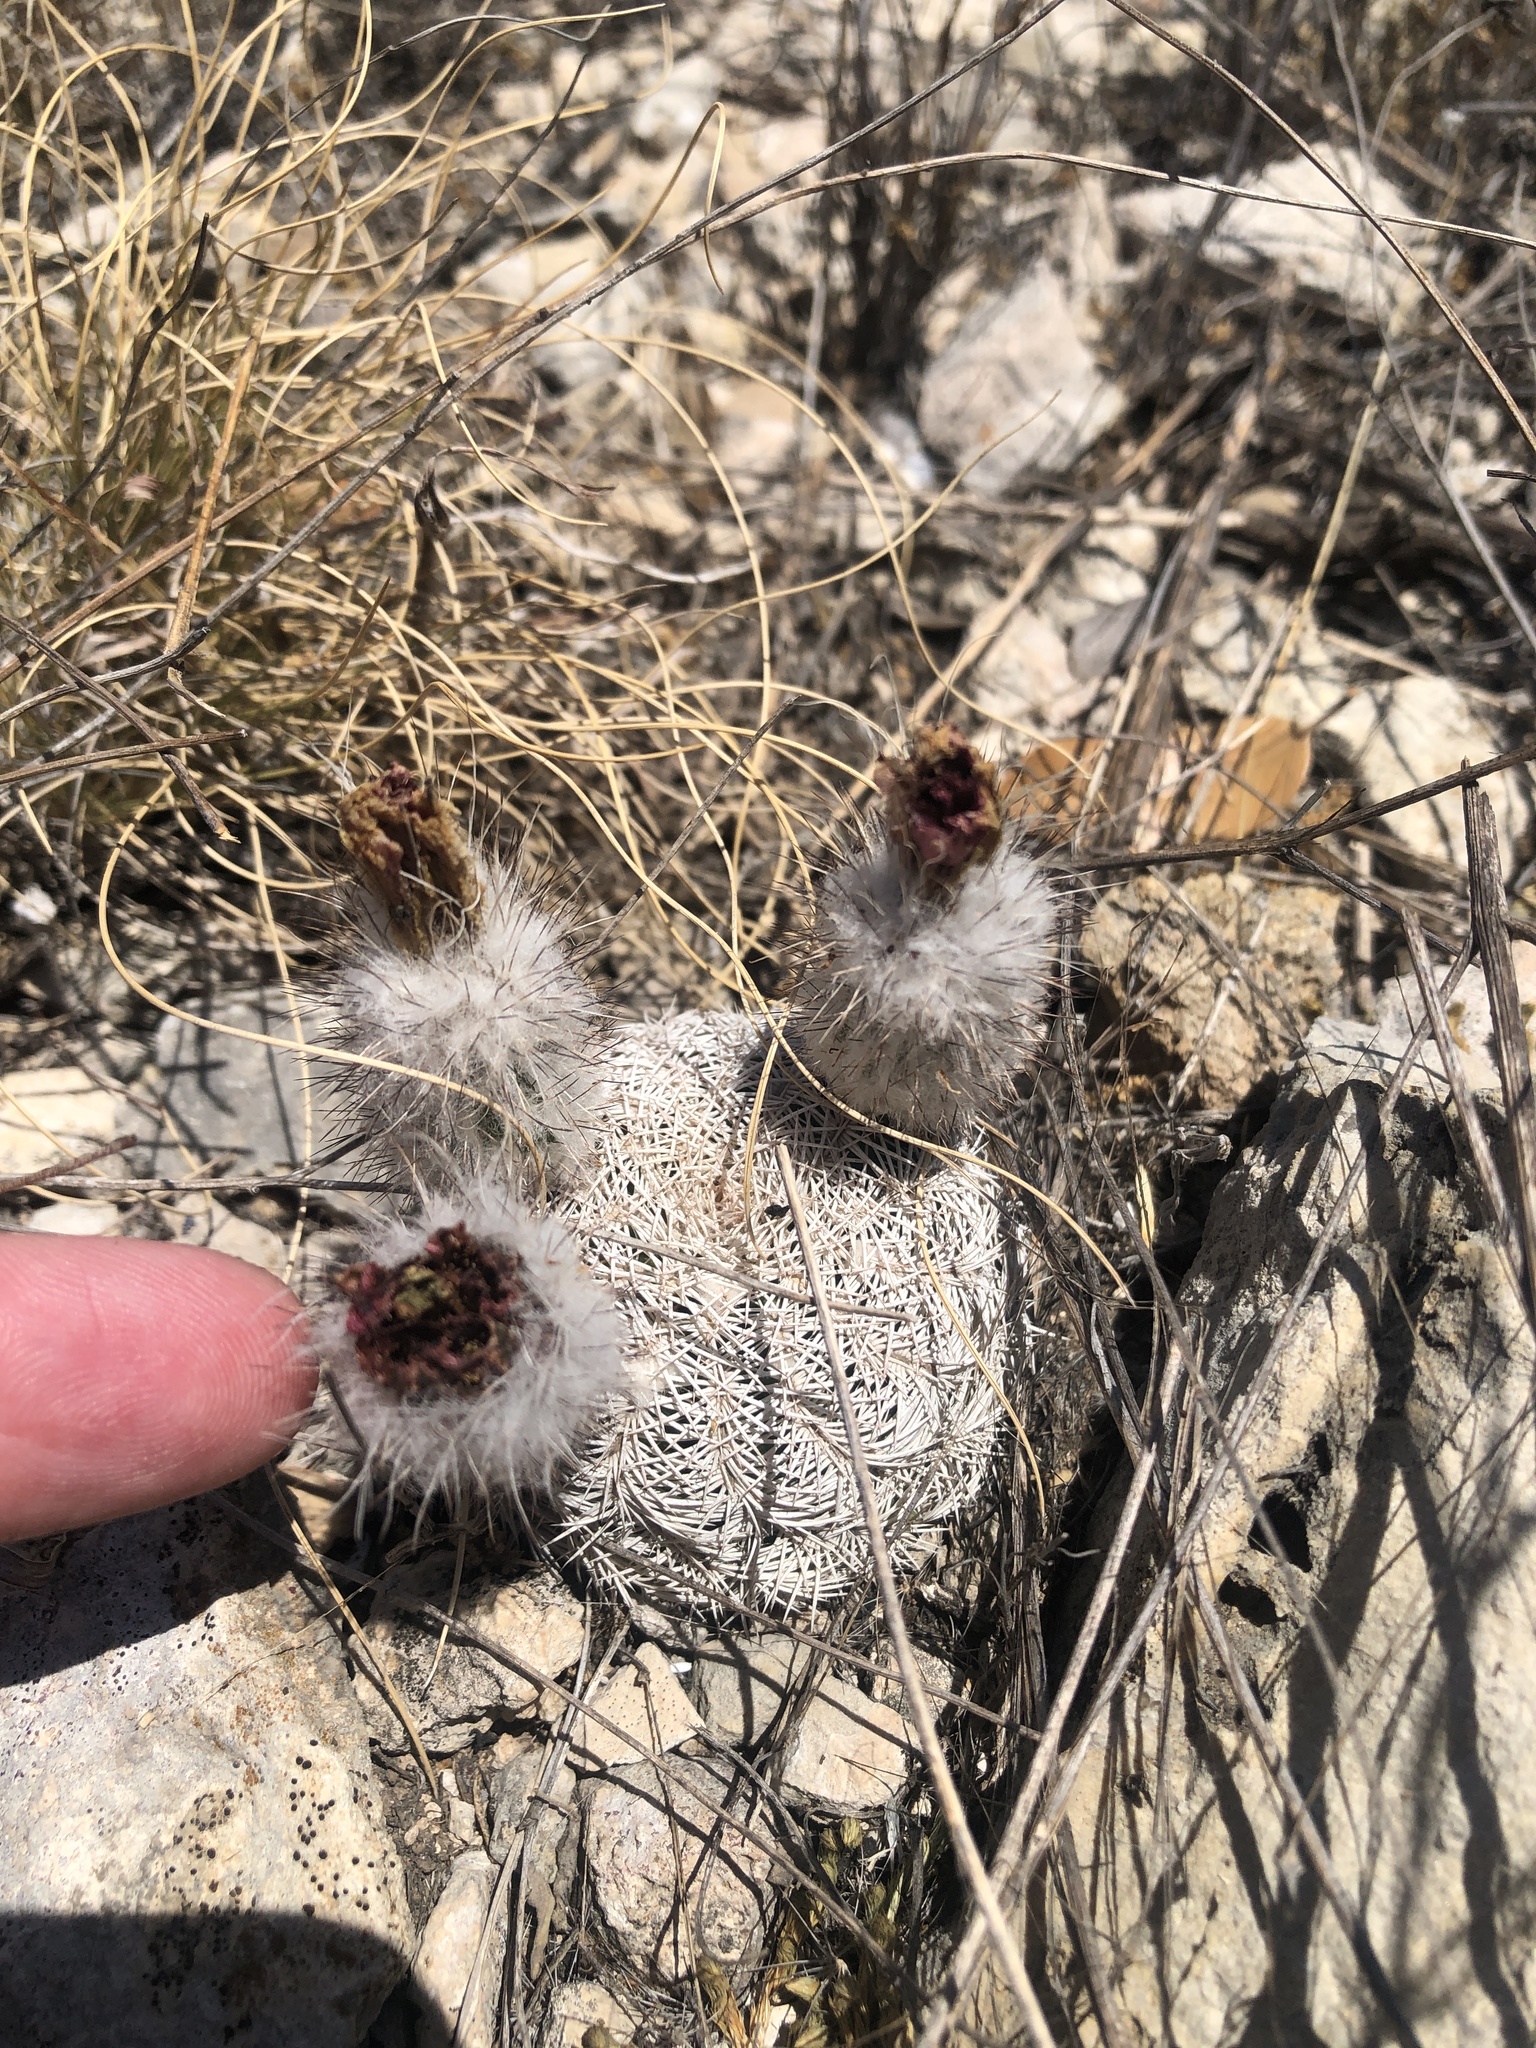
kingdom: Plantae
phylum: Tracheophyta
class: Magnoliopsida
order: Caryophyllales
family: Cactaceae
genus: Echinocereus
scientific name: Echinocereus reichenbachii
